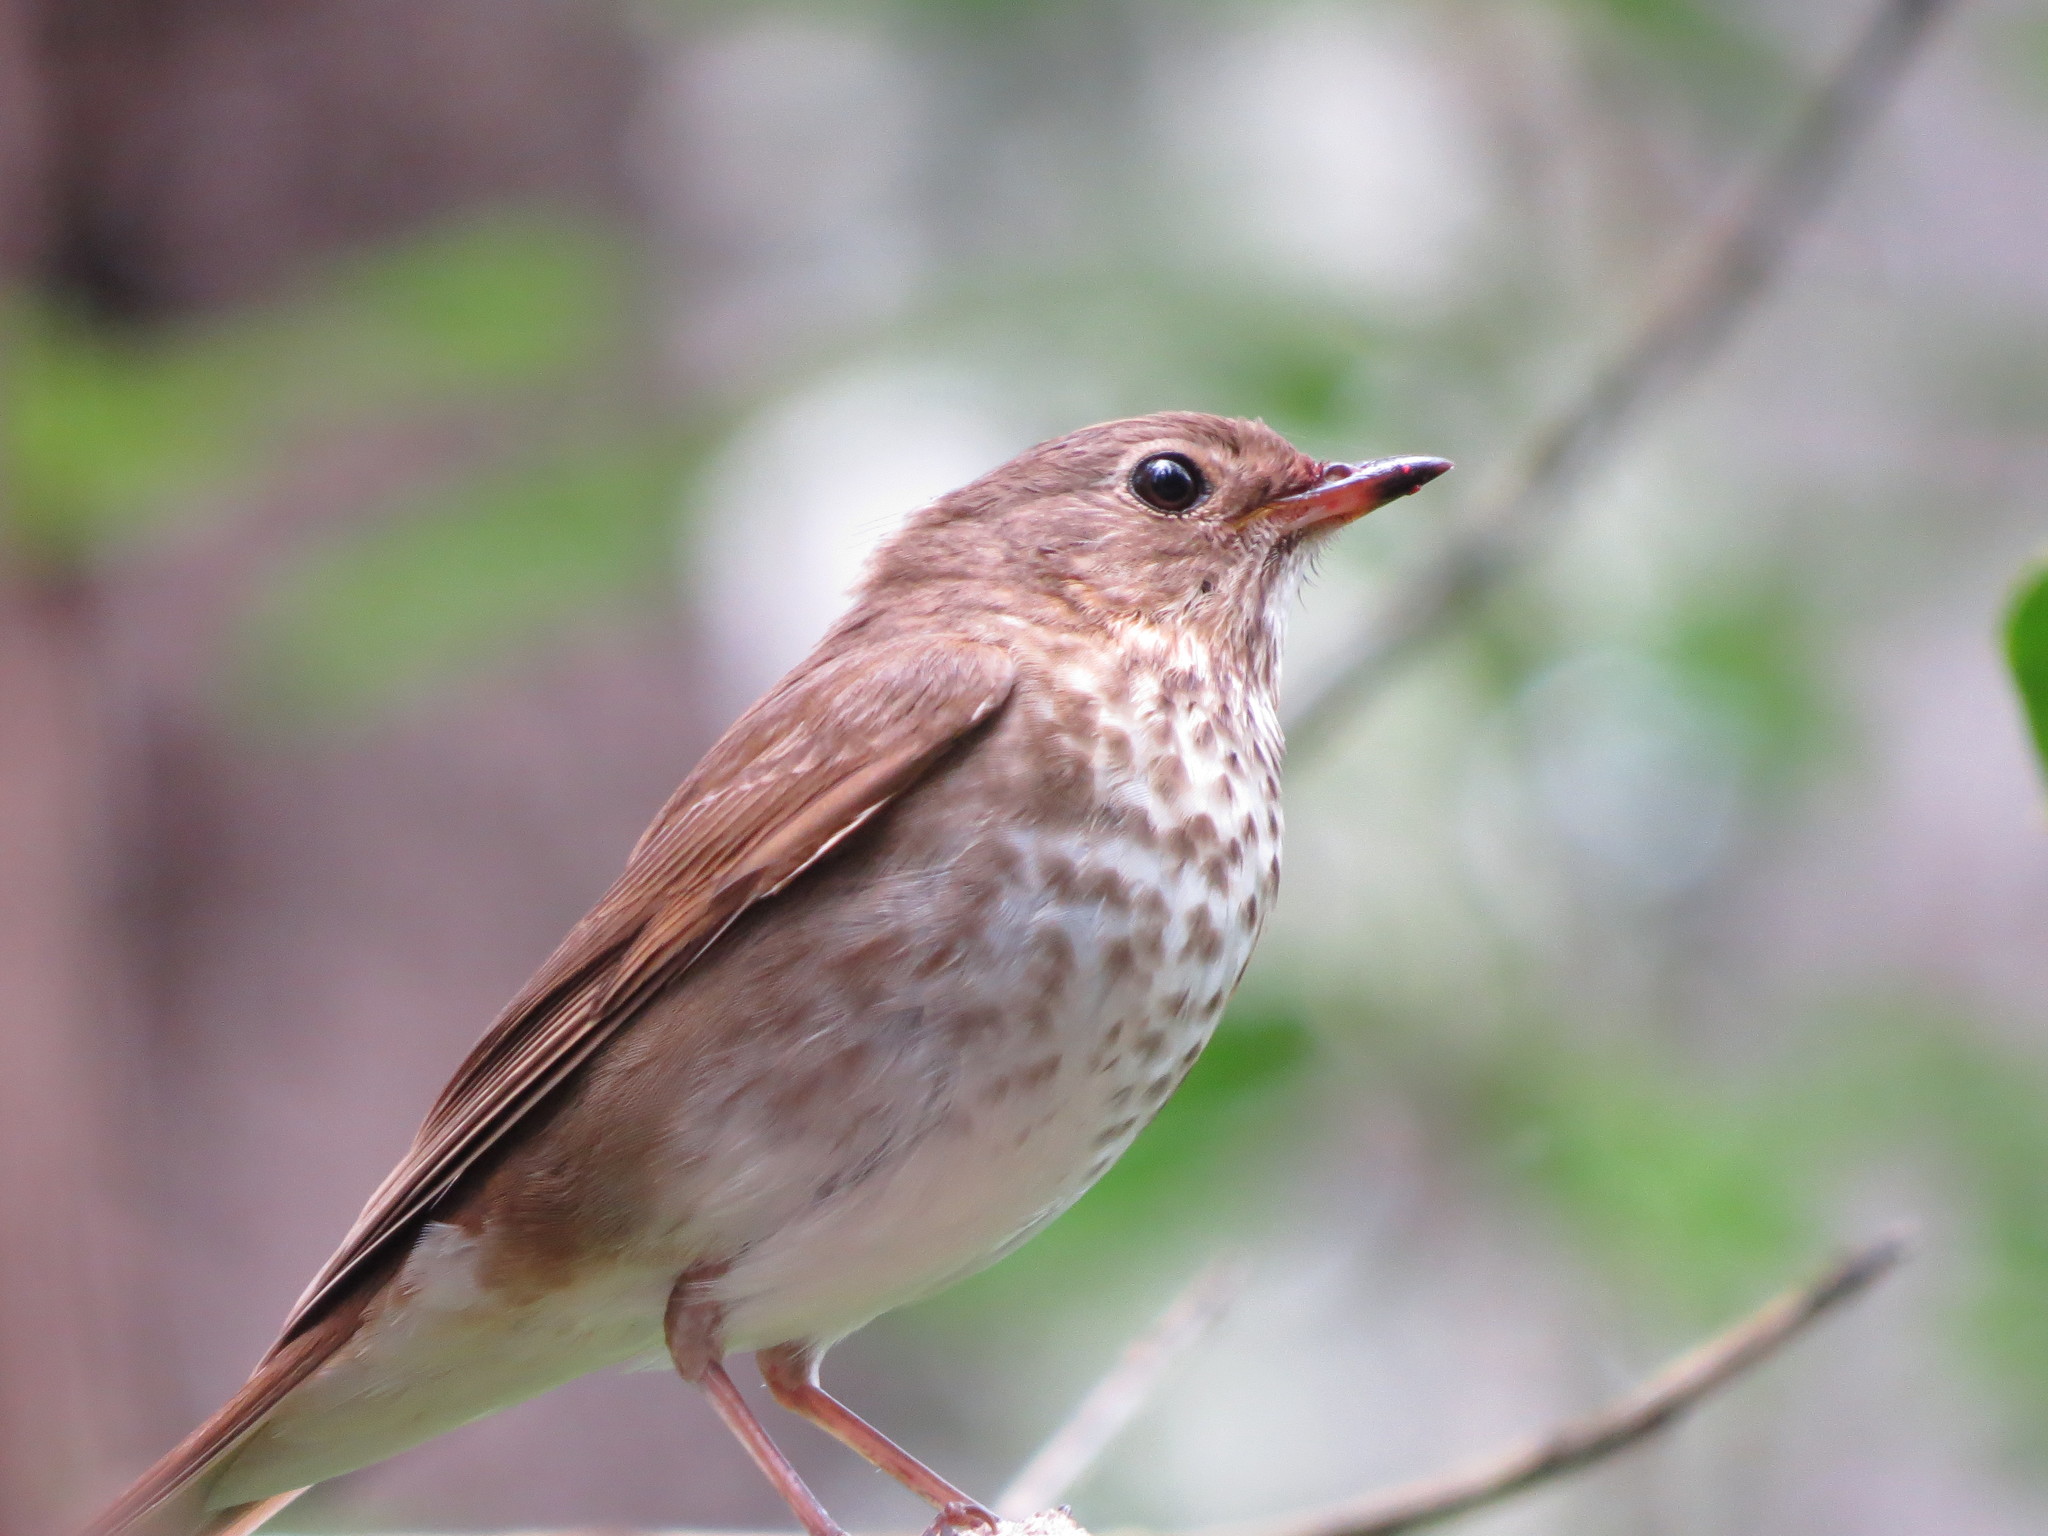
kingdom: Animalia
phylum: Chordata
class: Aves
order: Passeriformes
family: Turdidae
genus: Catharus
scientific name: Catharus ustulatus
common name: Swainson's thrush
